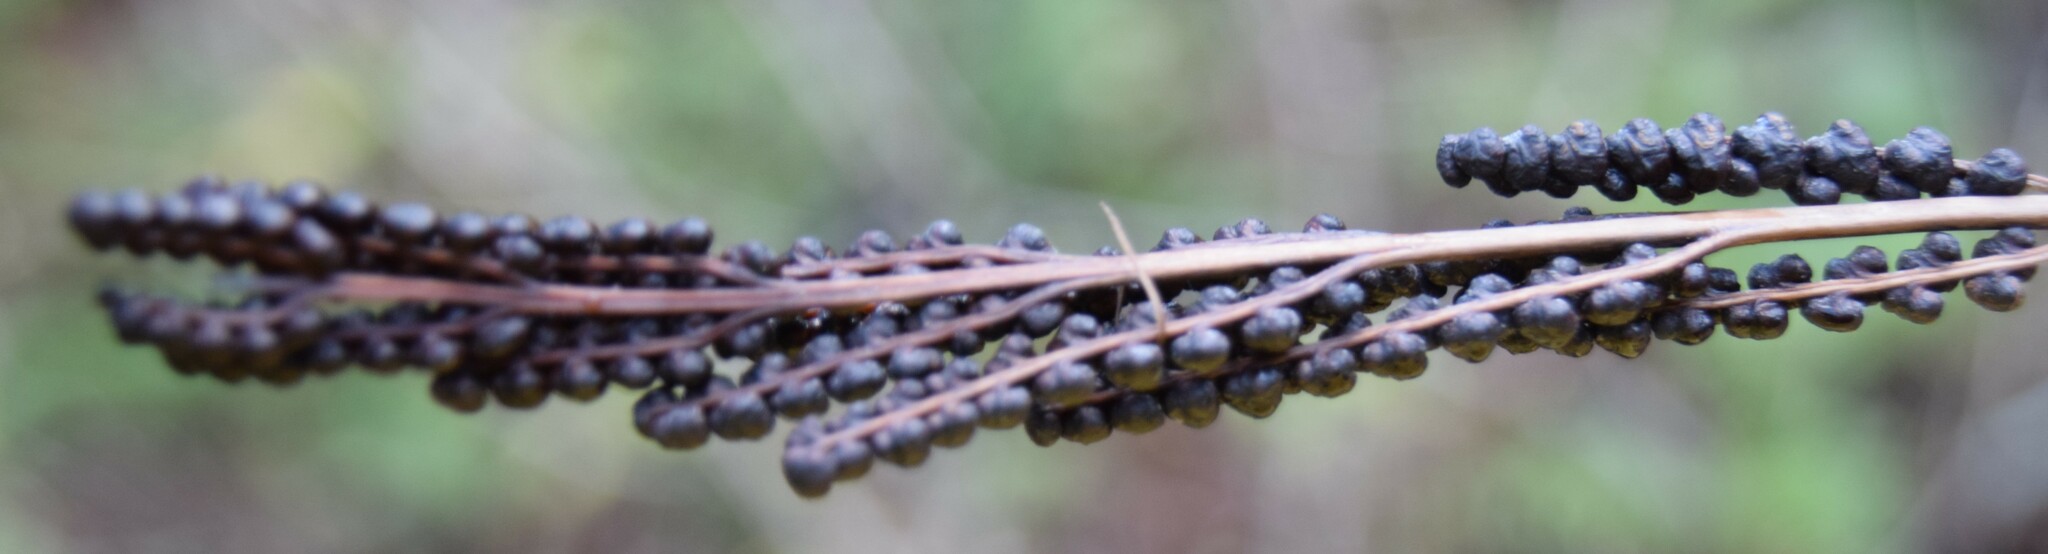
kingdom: Plantae
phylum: Tracheophyta
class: Polypodiopsida
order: Polypodiales
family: Onocleaceae
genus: Onoclea
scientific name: Onoclea sensibilis
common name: Sensitive fern
